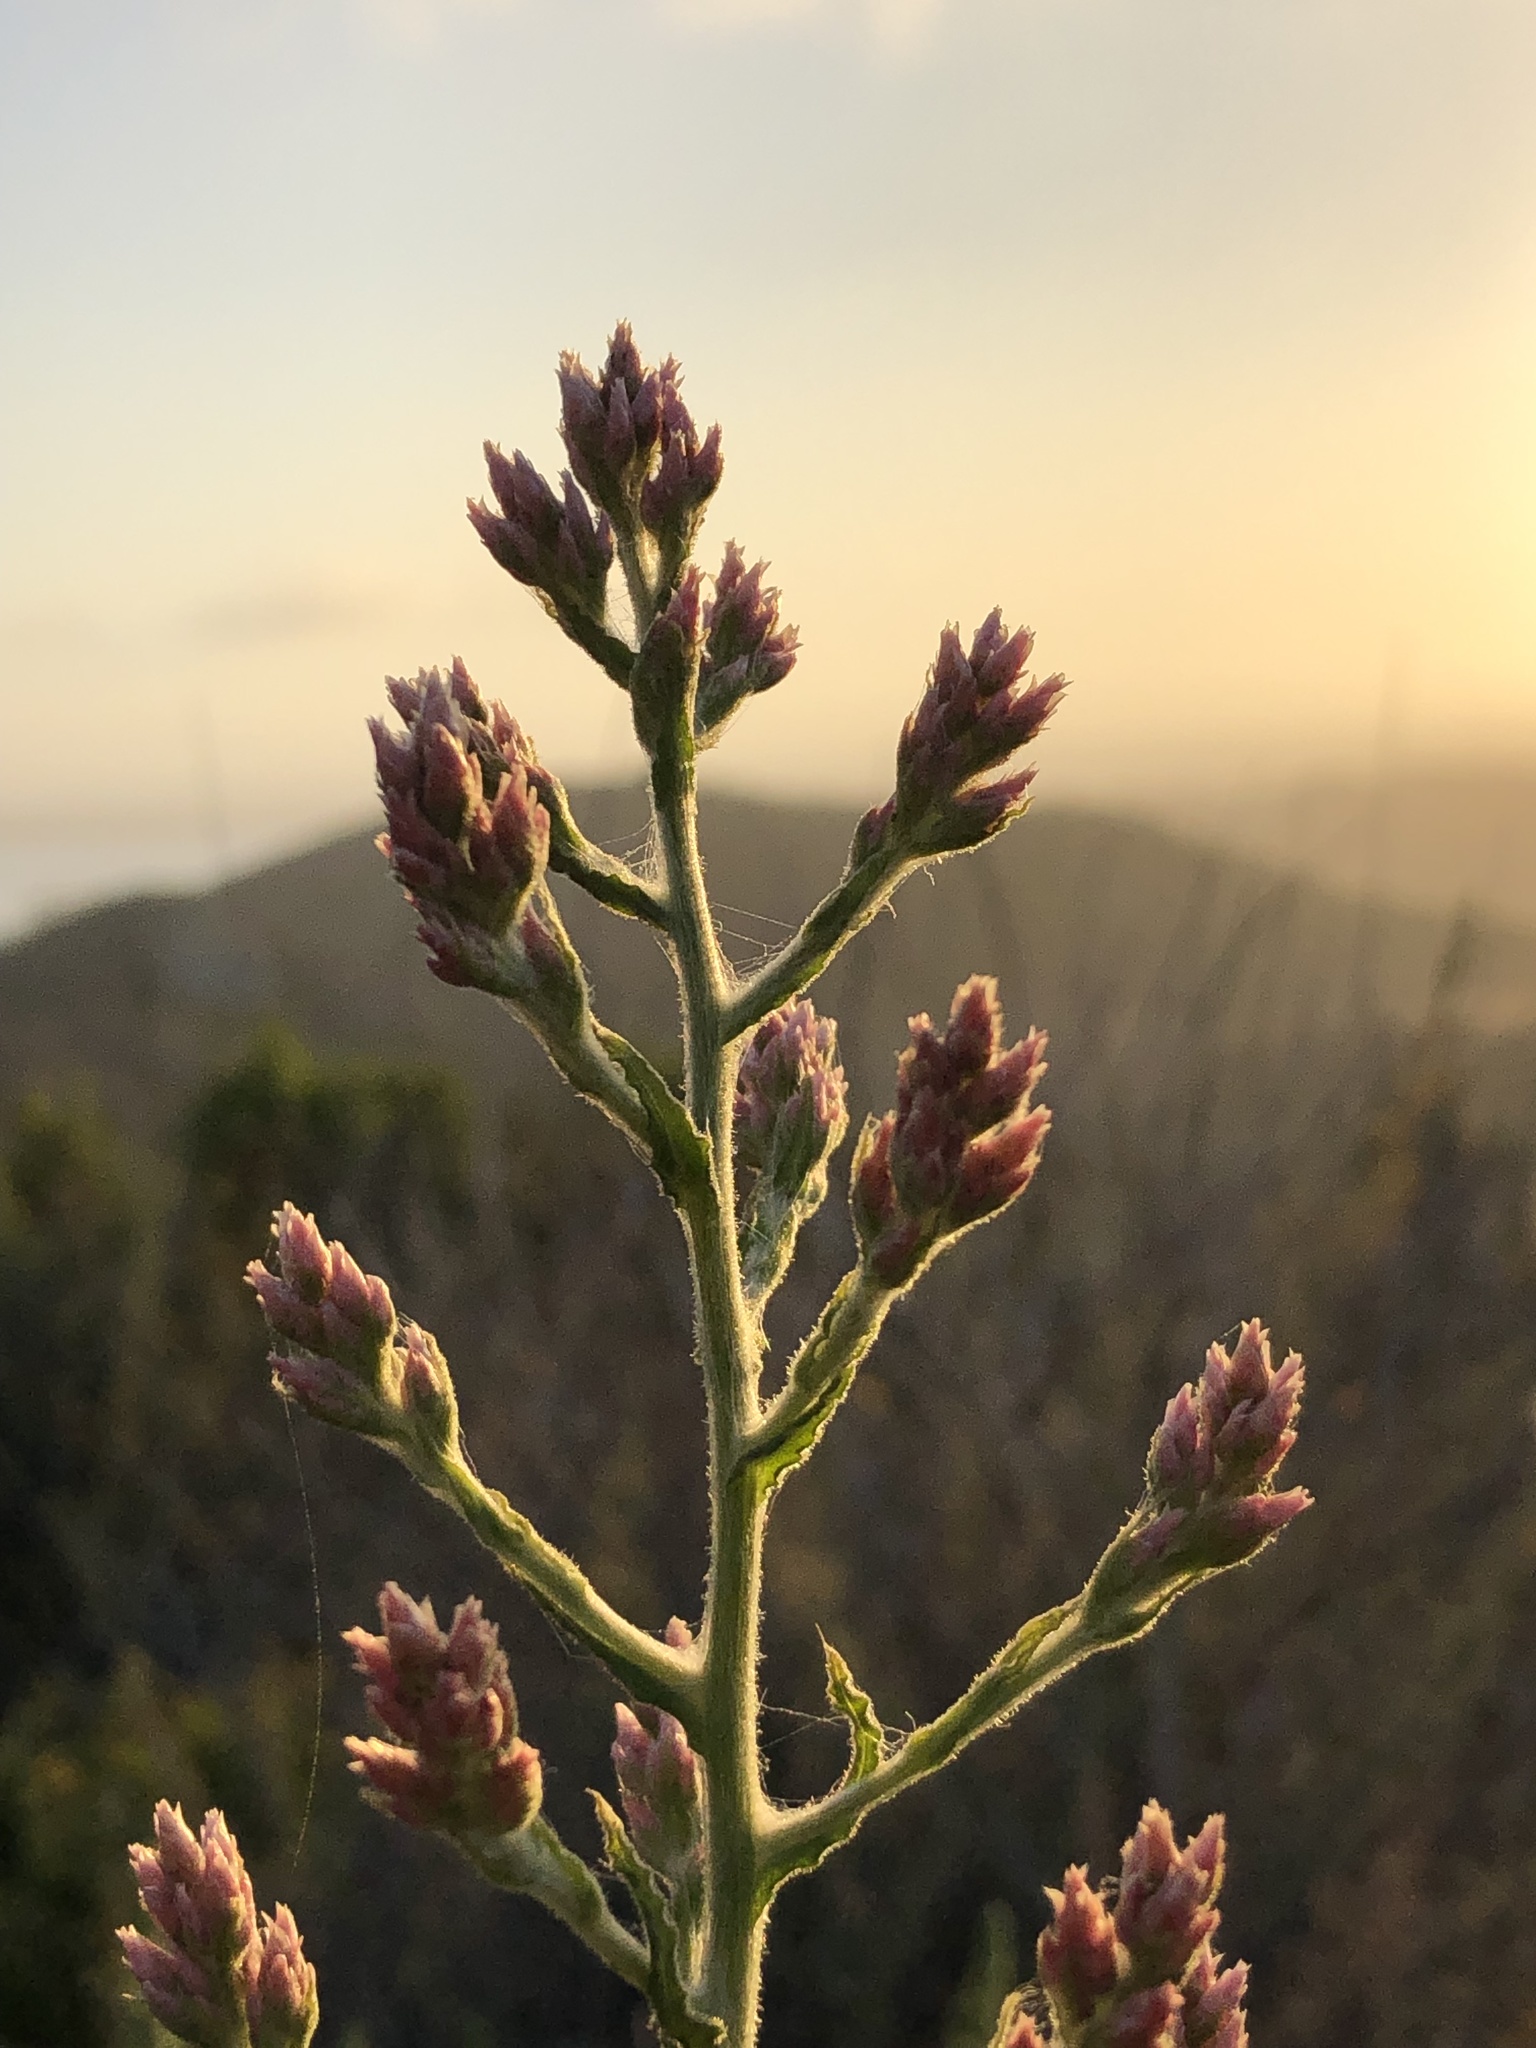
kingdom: Plantae
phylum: Tracheophyta
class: Magnoliopsida
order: Asterales
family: Asteraceae
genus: Pseudognaphalium
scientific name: Pseudognaphalium ramosissimum
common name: Pink rabbit-tobacco
